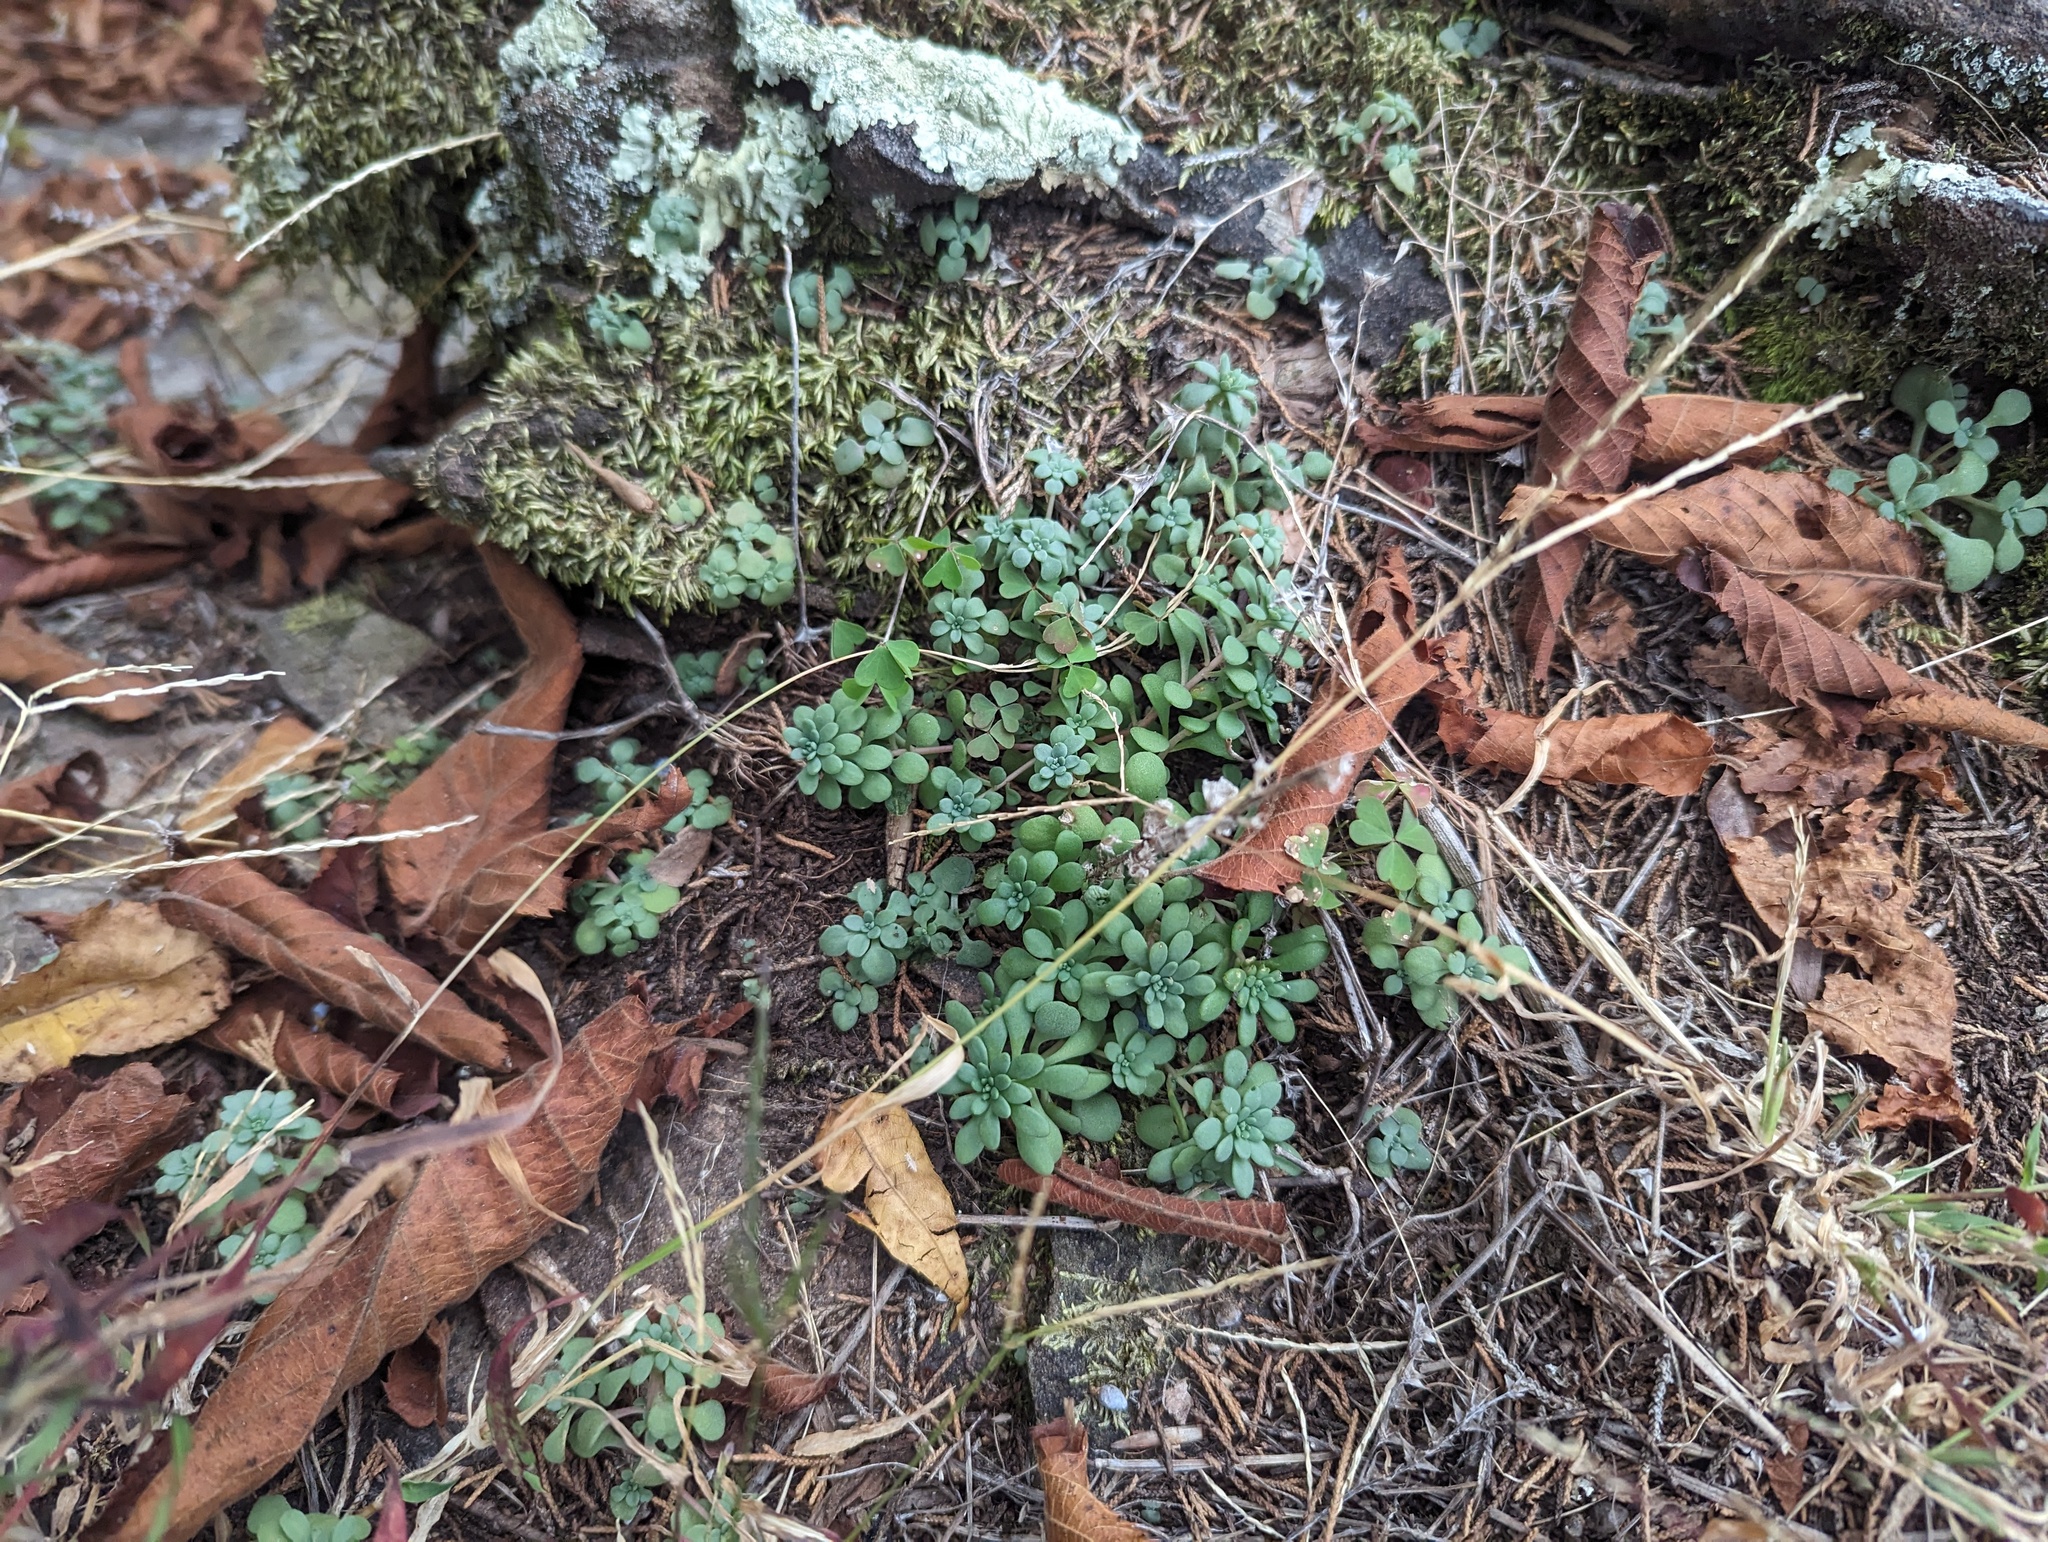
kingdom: Plantae
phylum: Tracheophyta
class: Magnoliopsida
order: Saxifragales
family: Crassulaceae
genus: Sedum
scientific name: Sedum pulchellum
